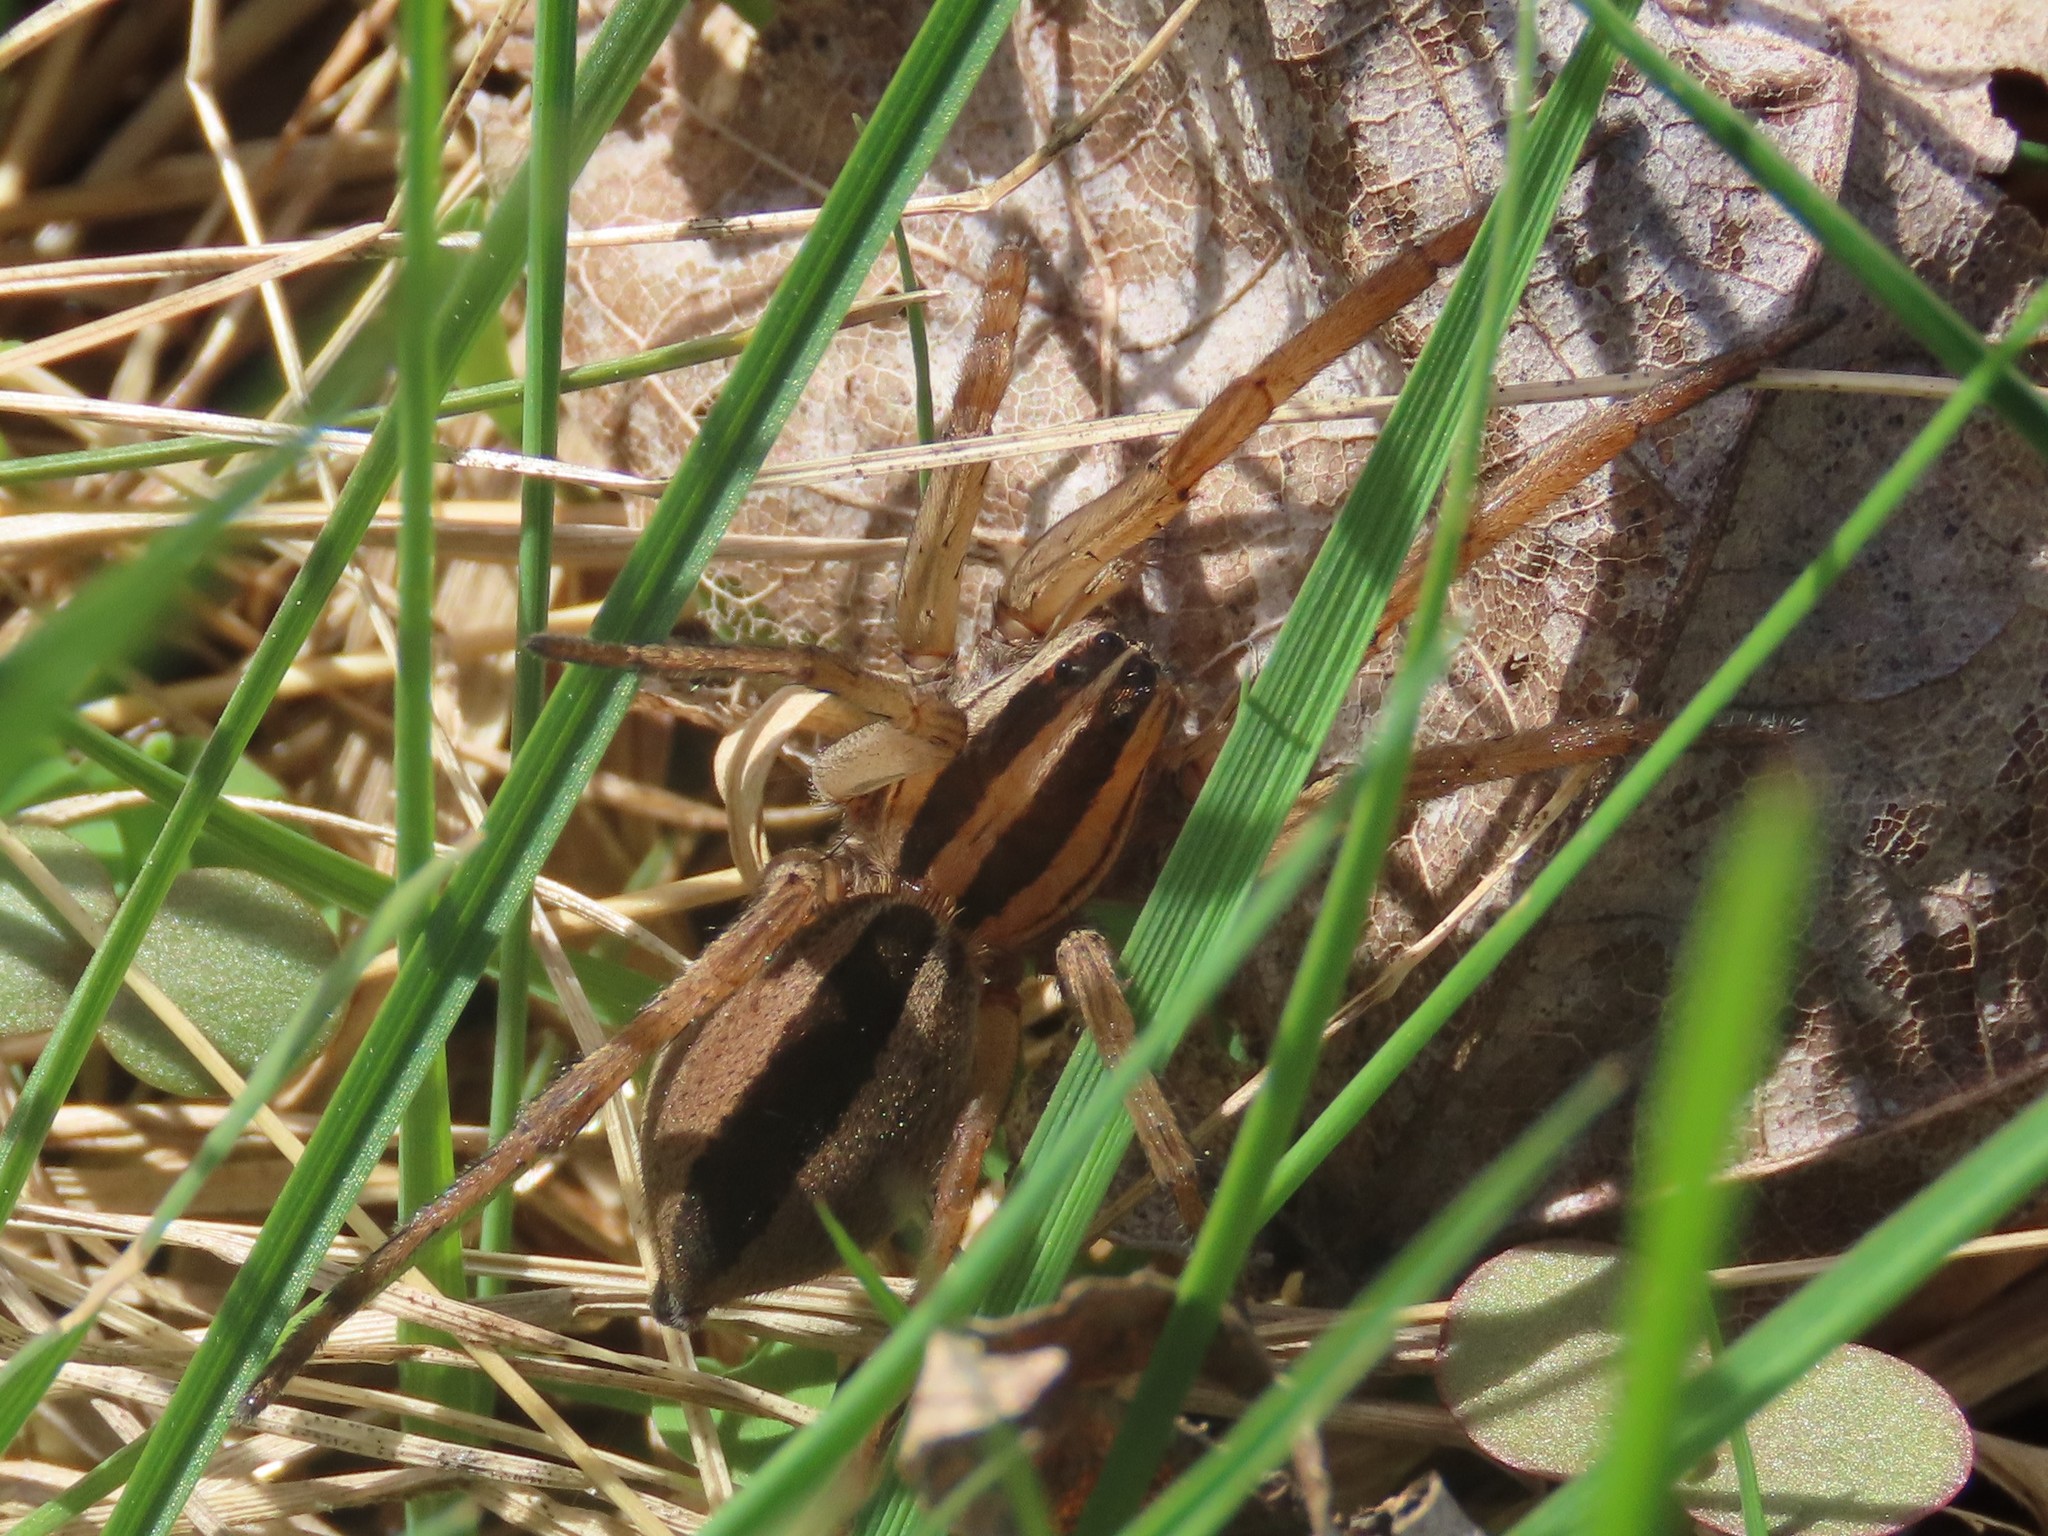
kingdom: Animalia
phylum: Arthropoda
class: Arachnida
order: Araneae
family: Lycosidae
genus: Rabidosa
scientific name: Rabidosa punctulata
